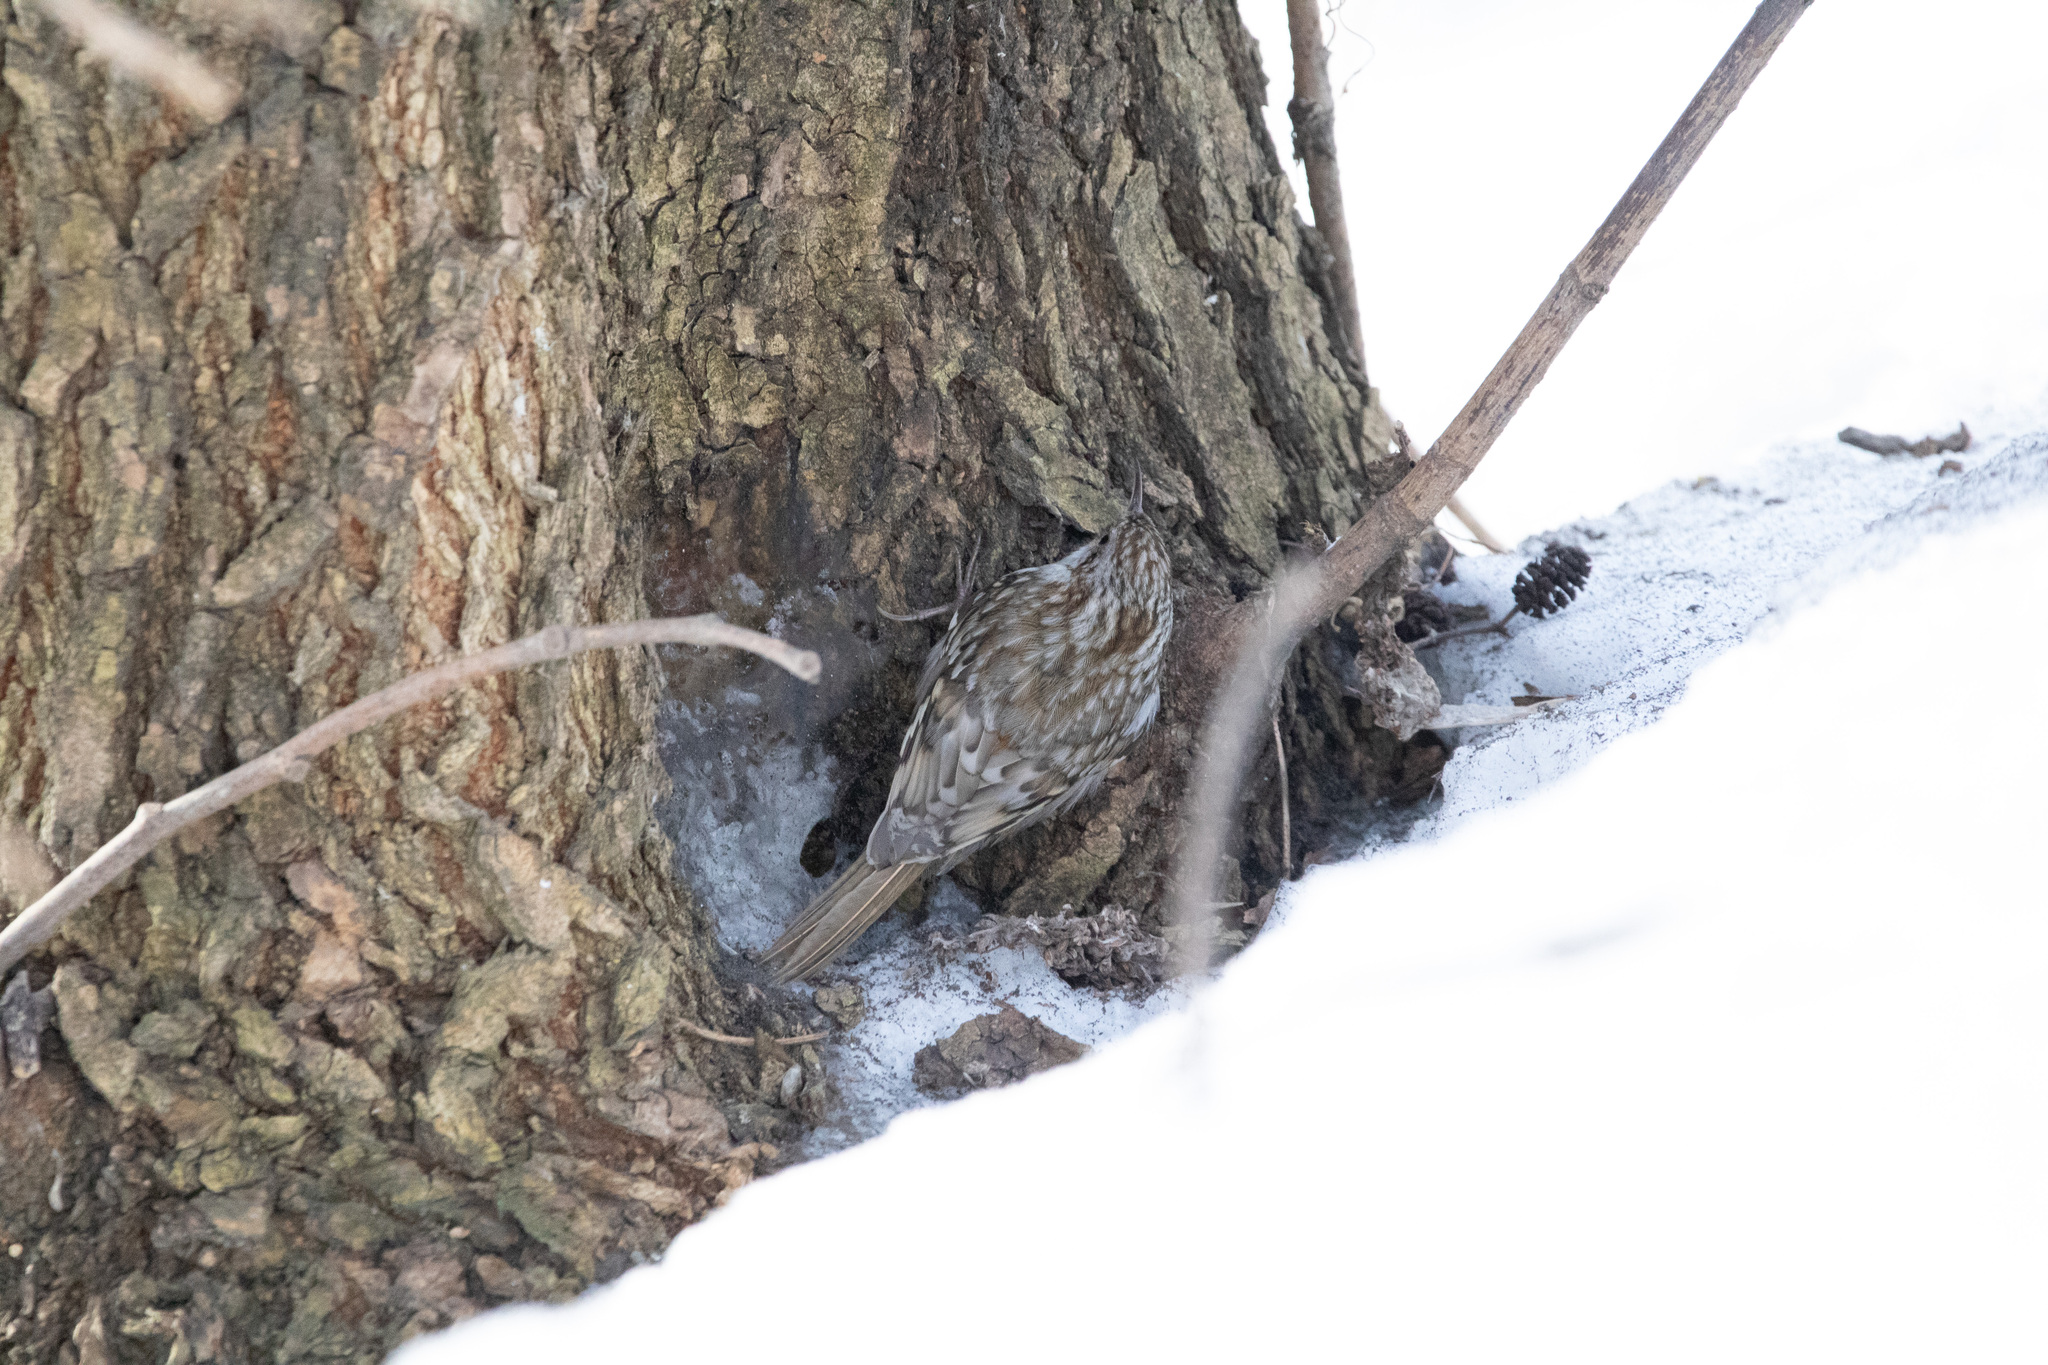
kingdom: Animalia
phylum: Chordata
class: Aves
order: Passeriformes
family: Certhiidae
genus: Certhia
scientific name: Certhia familiaris
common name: Eurasian treecreeper
